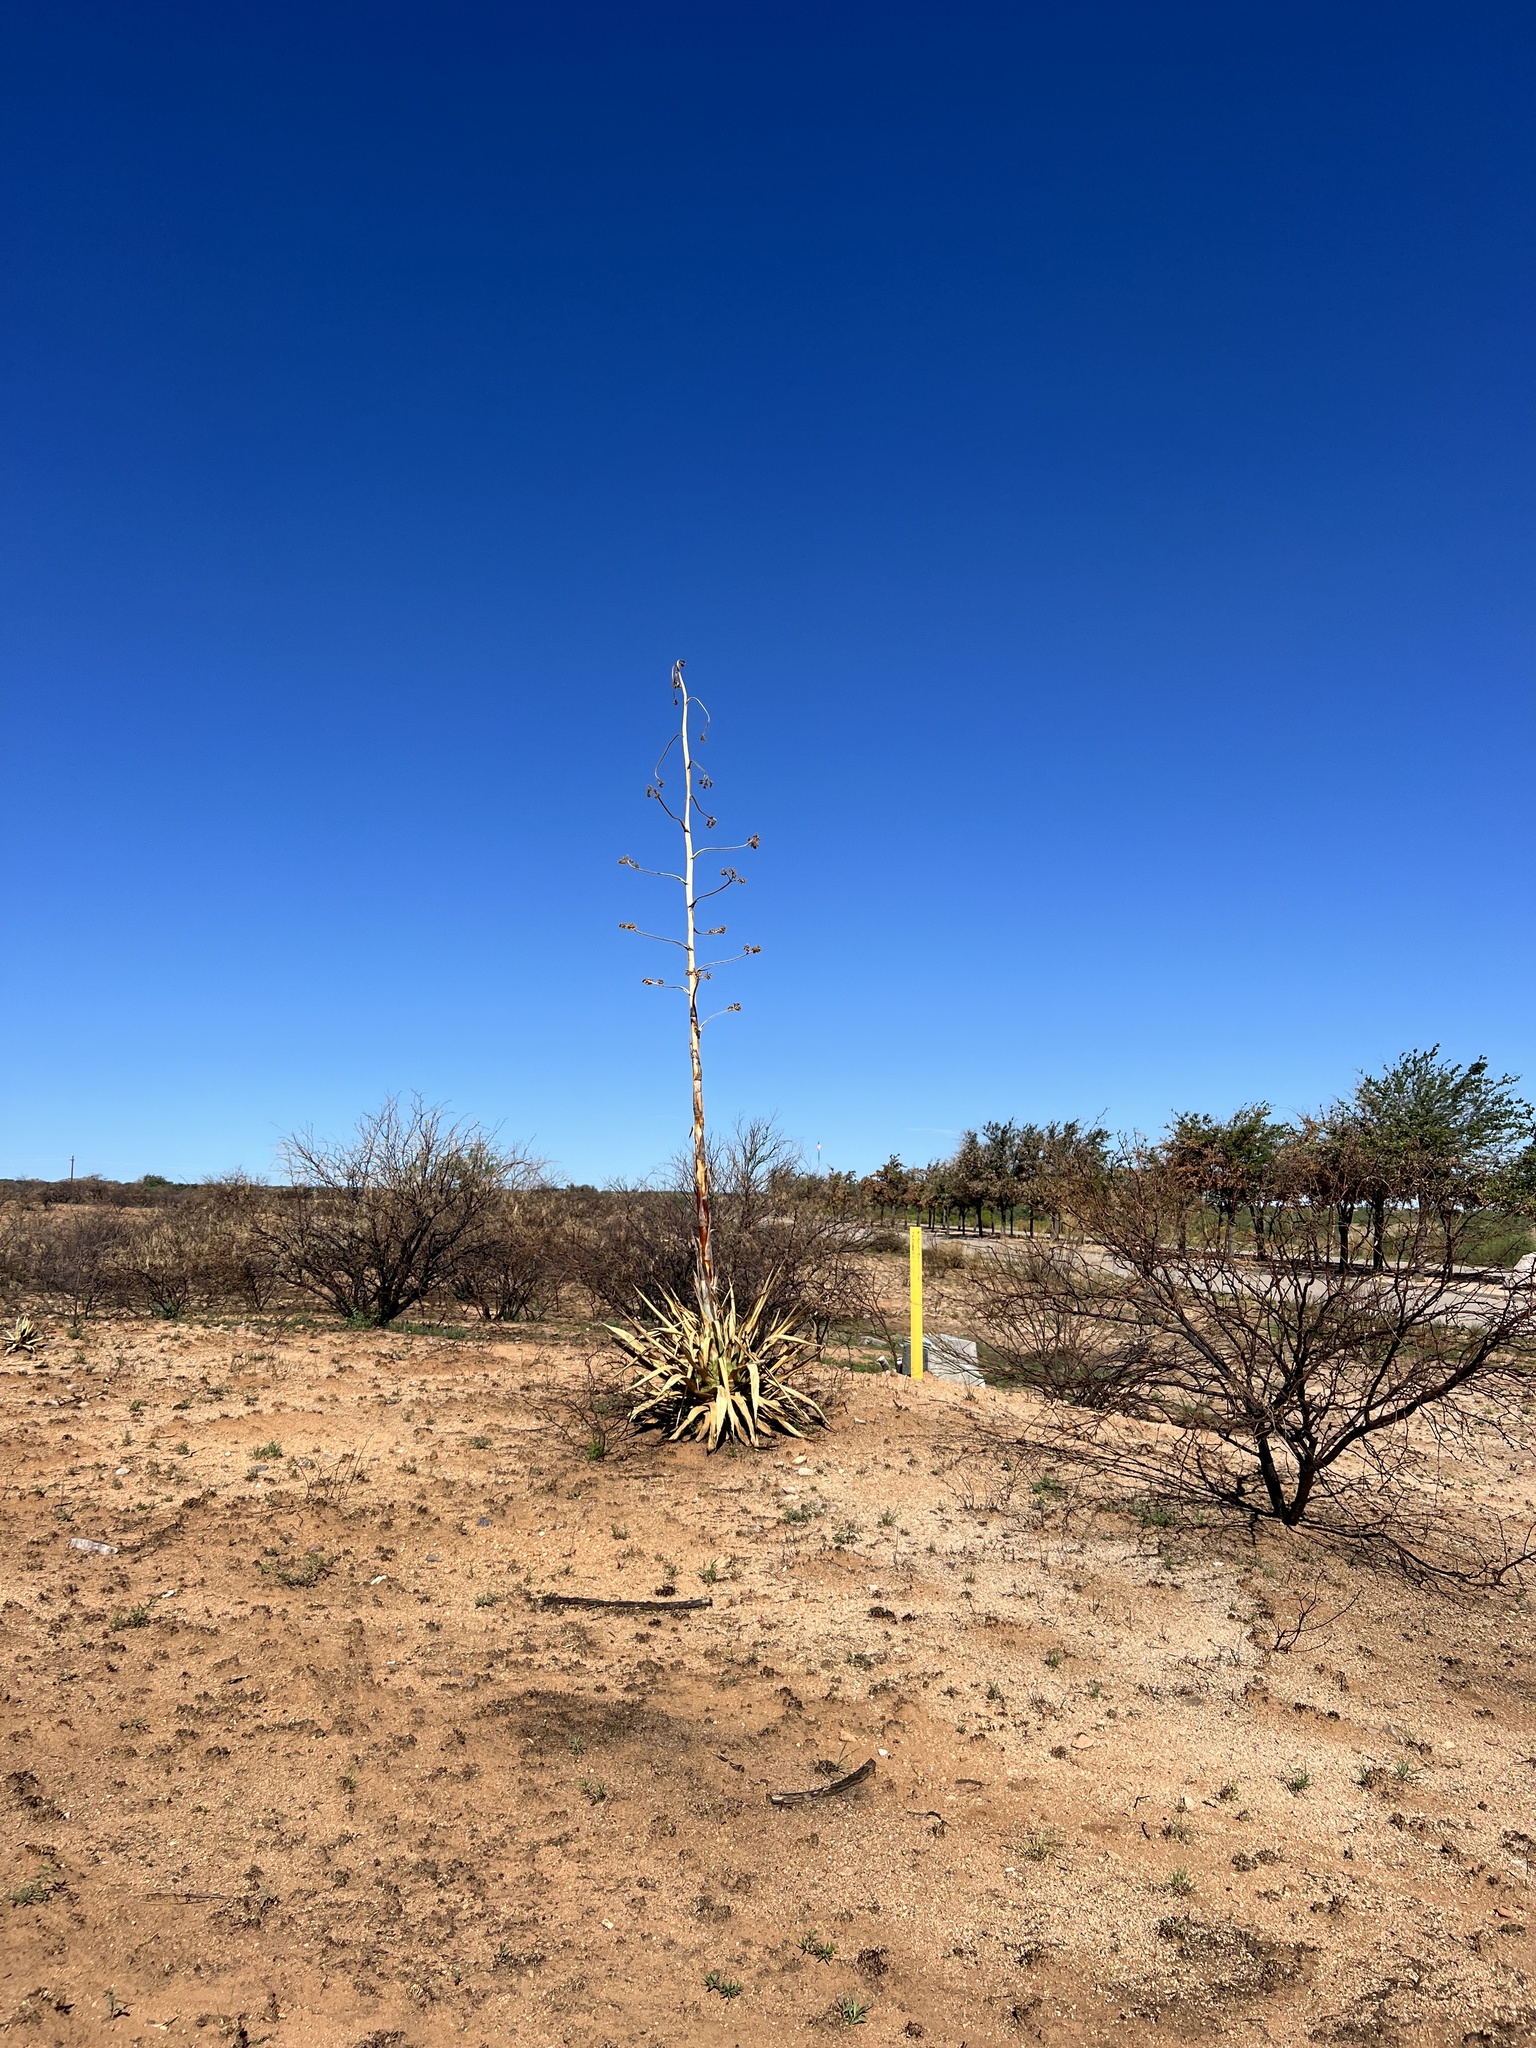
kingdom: Plantae
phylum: Tracheophyta
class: Liliopsida
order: Asparagales
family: Asparagaceae
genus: Agave
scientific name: Agave palmeri
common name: Palmer agave
